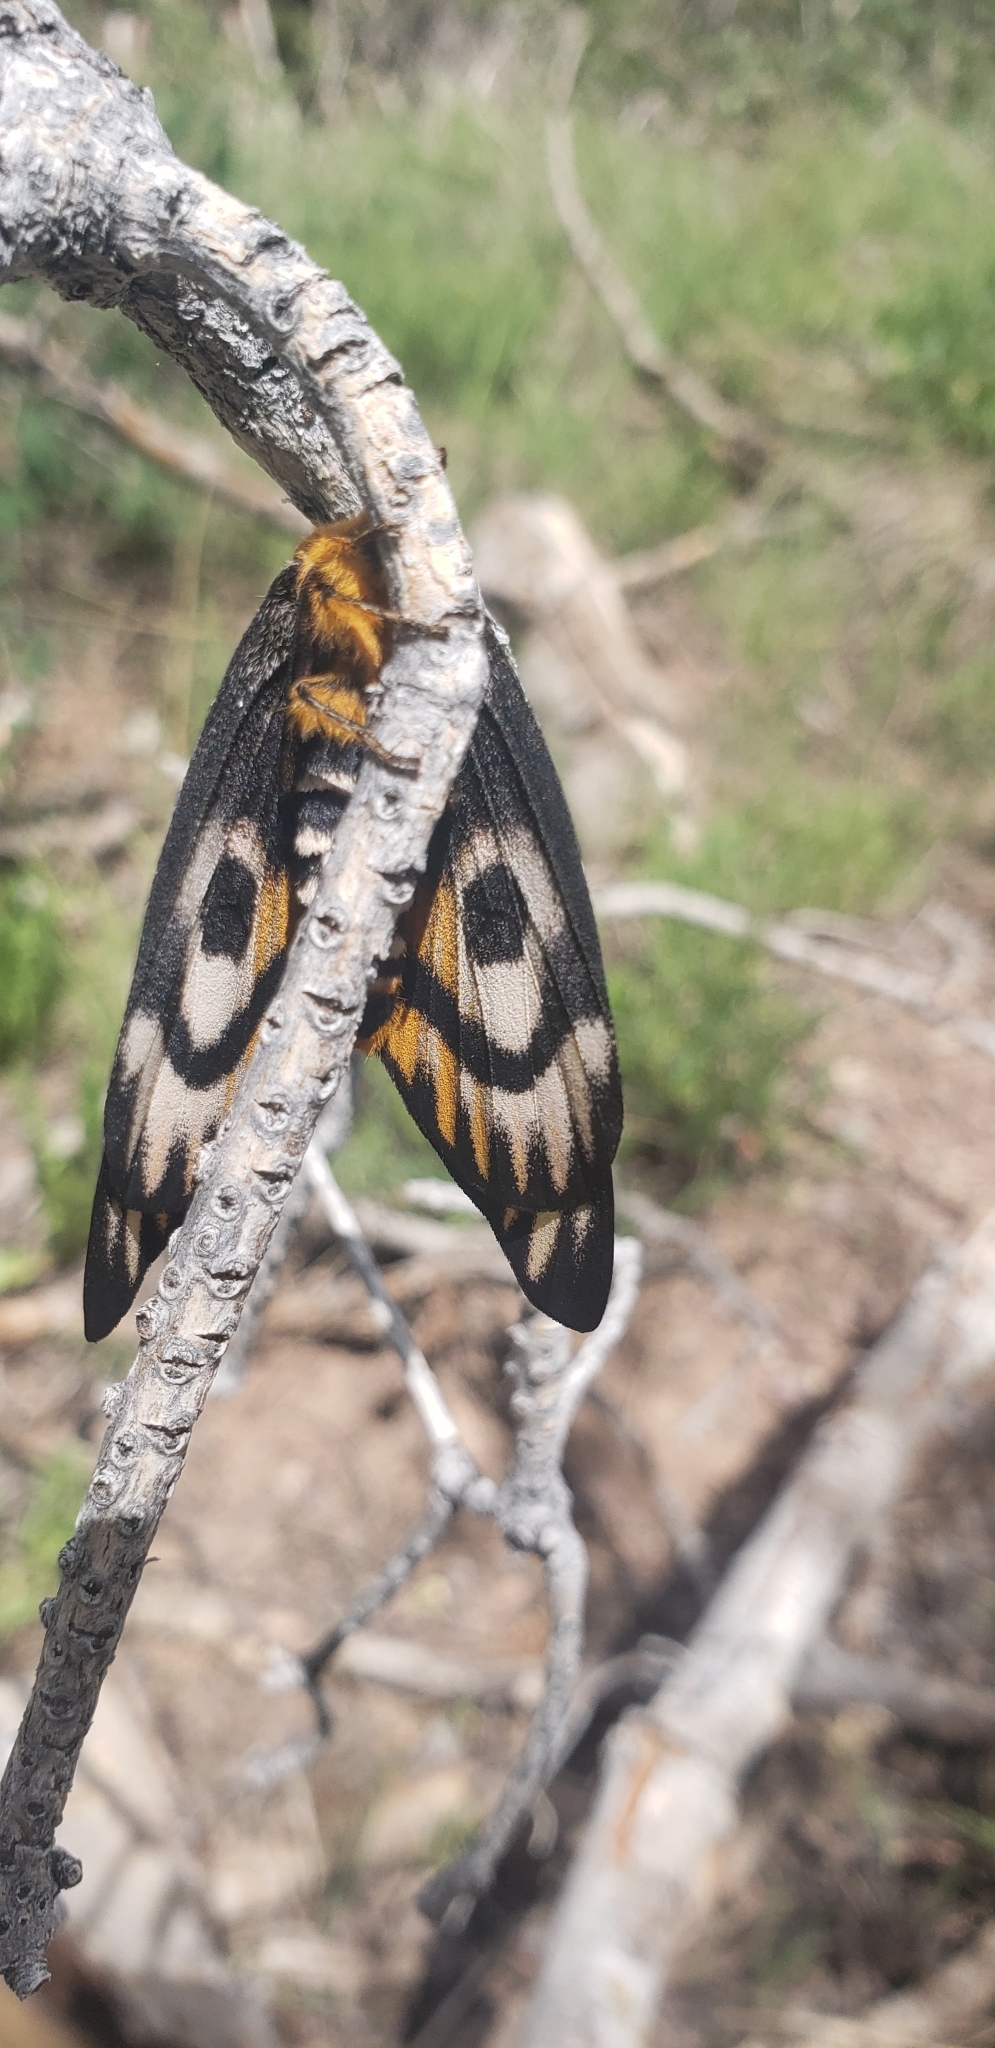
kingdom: Animalia
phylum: Arthropoda
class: Insecta
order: Lepidoptera
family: Saturniidae
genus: Hemileuca
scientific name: Hemileuca eglanterina
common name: Western sheepmoth
